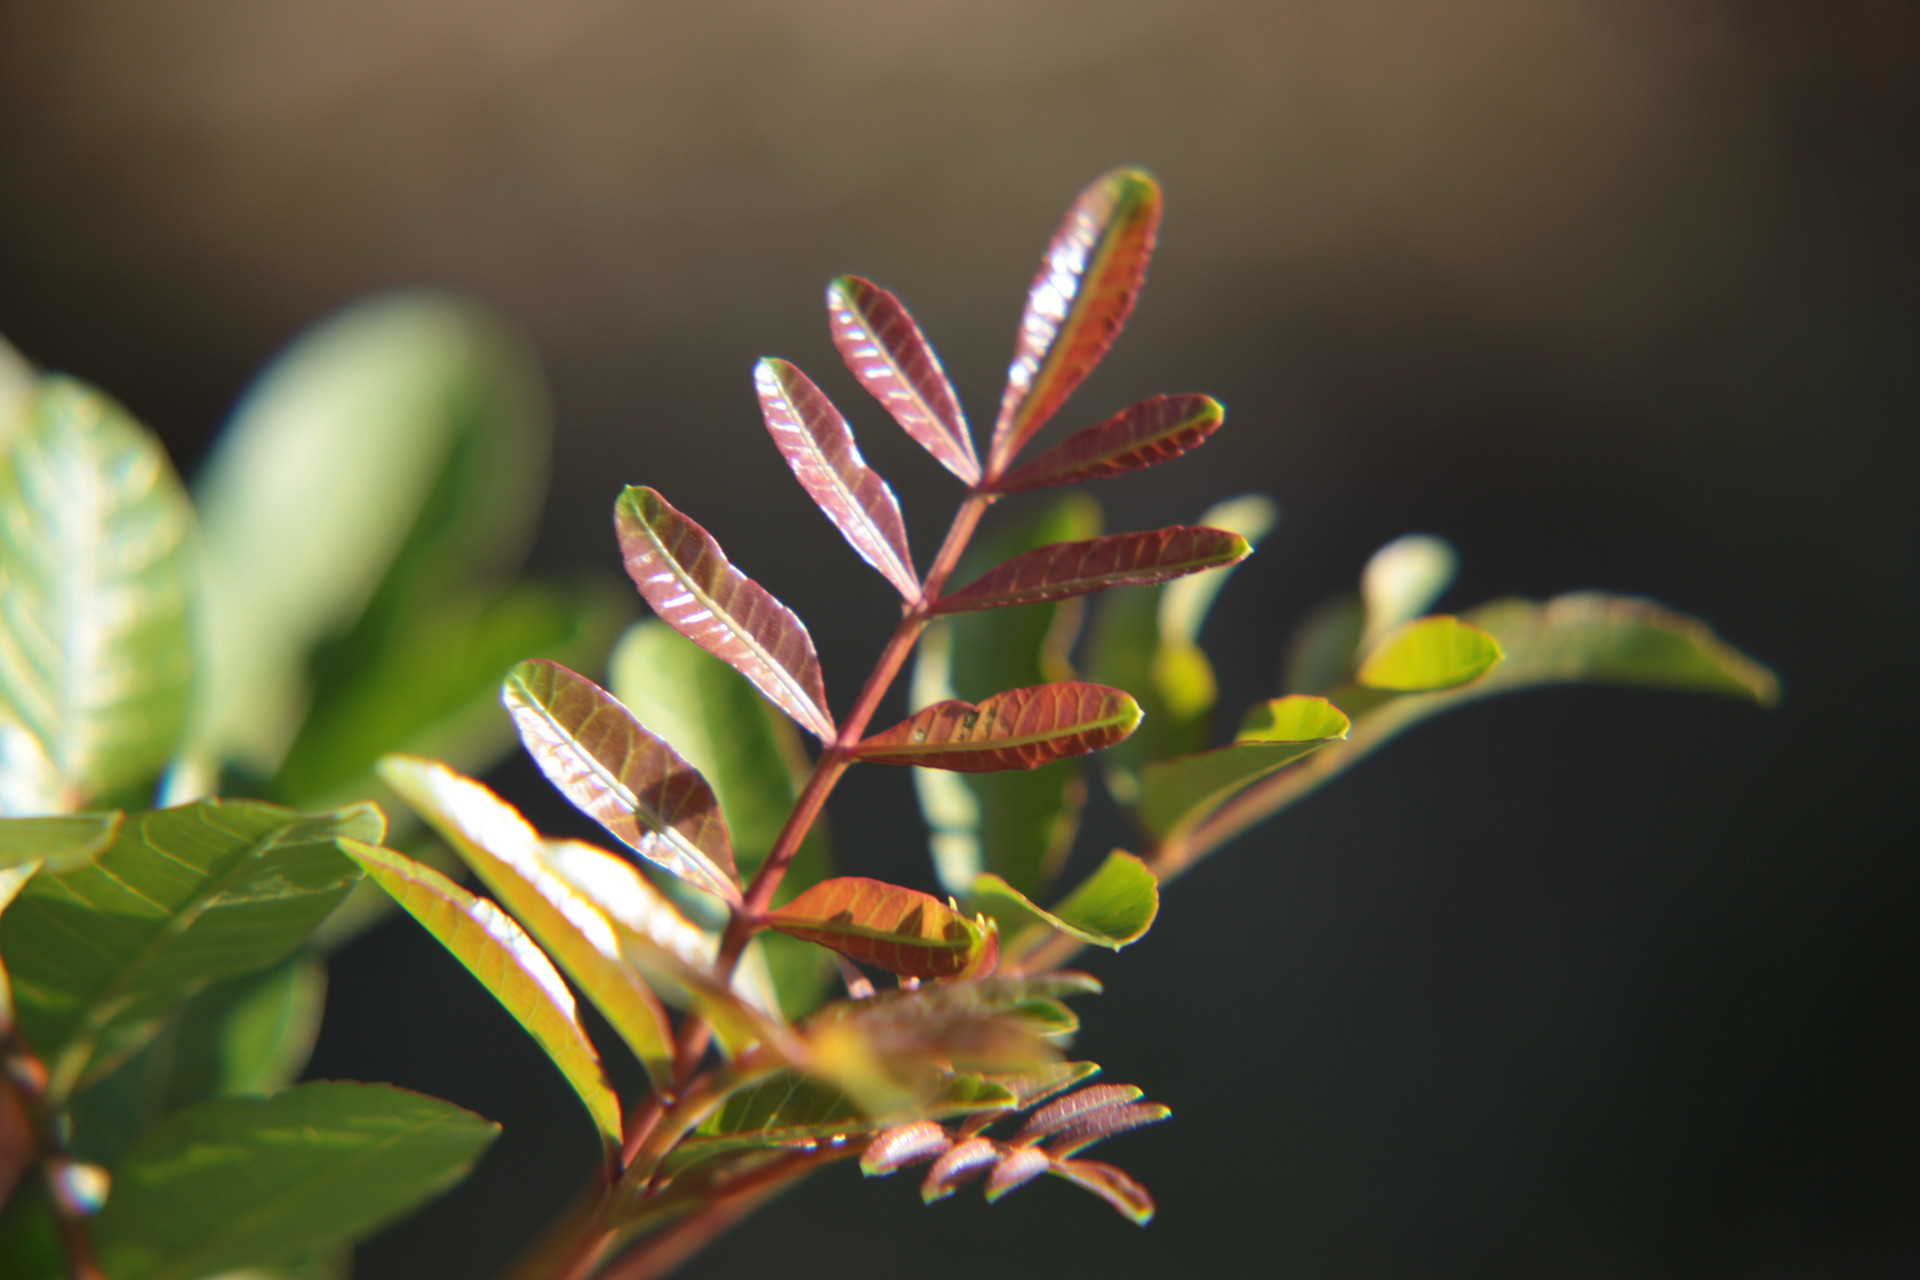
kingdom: Plantae
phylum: Tracheophyta
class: Magnoliopsida
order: Sapindales
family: Anacardiaceae
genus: Schinus
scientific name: Schinus terebinthifolia
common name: Brazilian peppertree
